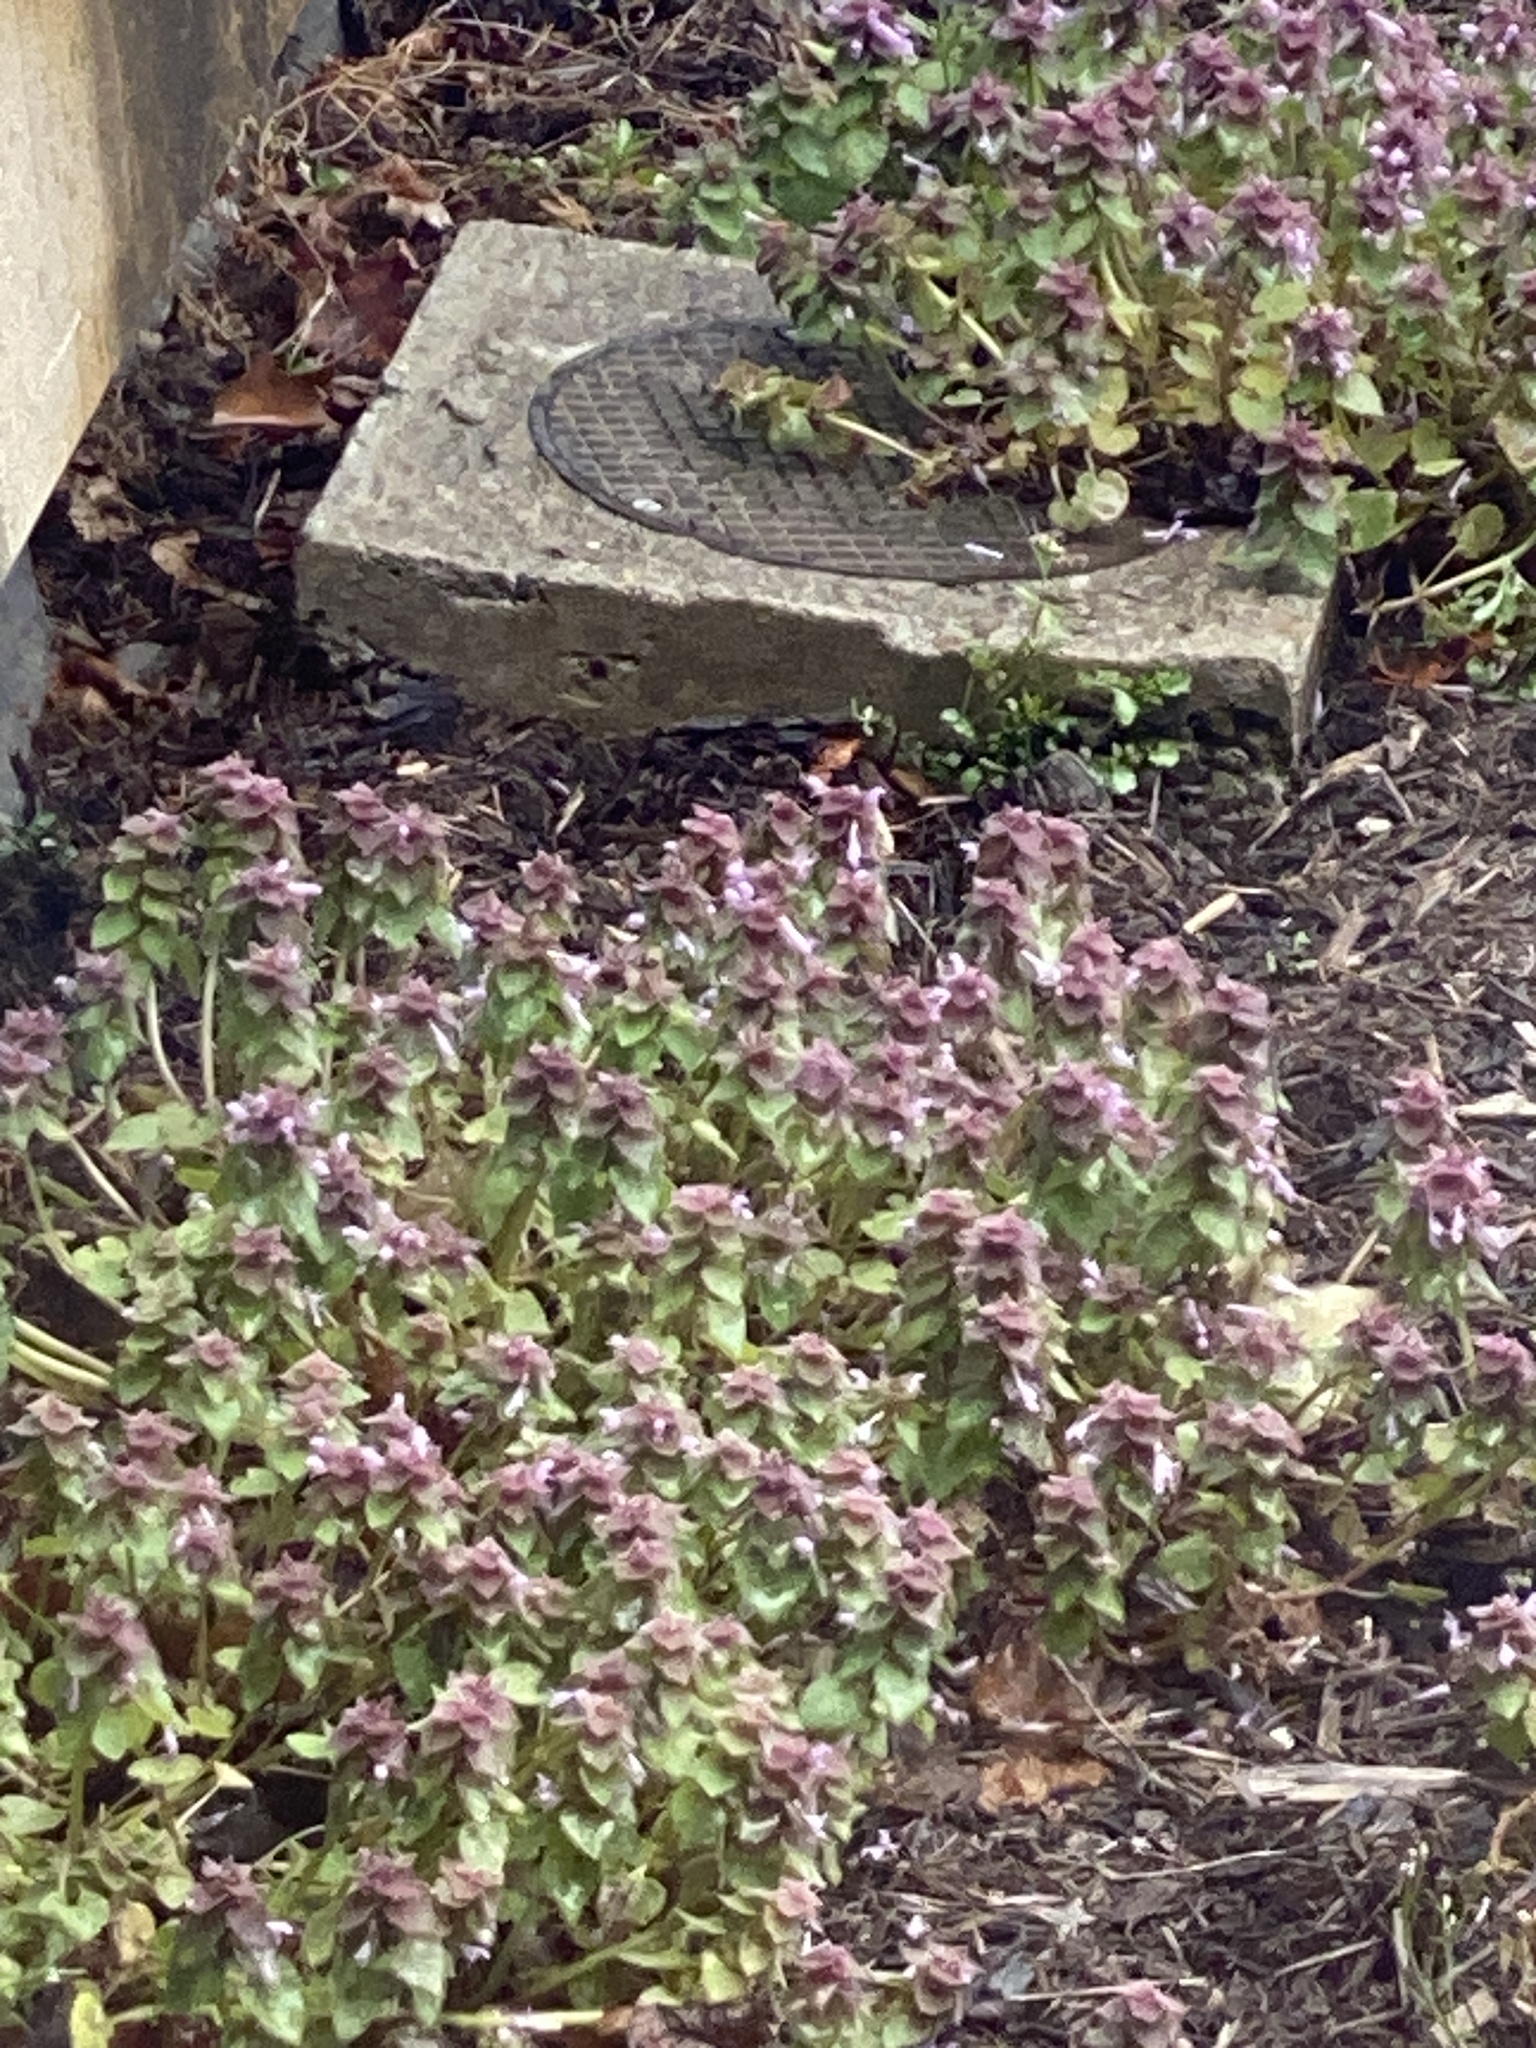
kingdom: Plantae
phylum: Tracheophyta
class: Magnoliopsida
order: Lamiales
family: Lamiaceae
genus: Lamium
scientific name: Lamium purpureum
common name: Red dead-nettle
